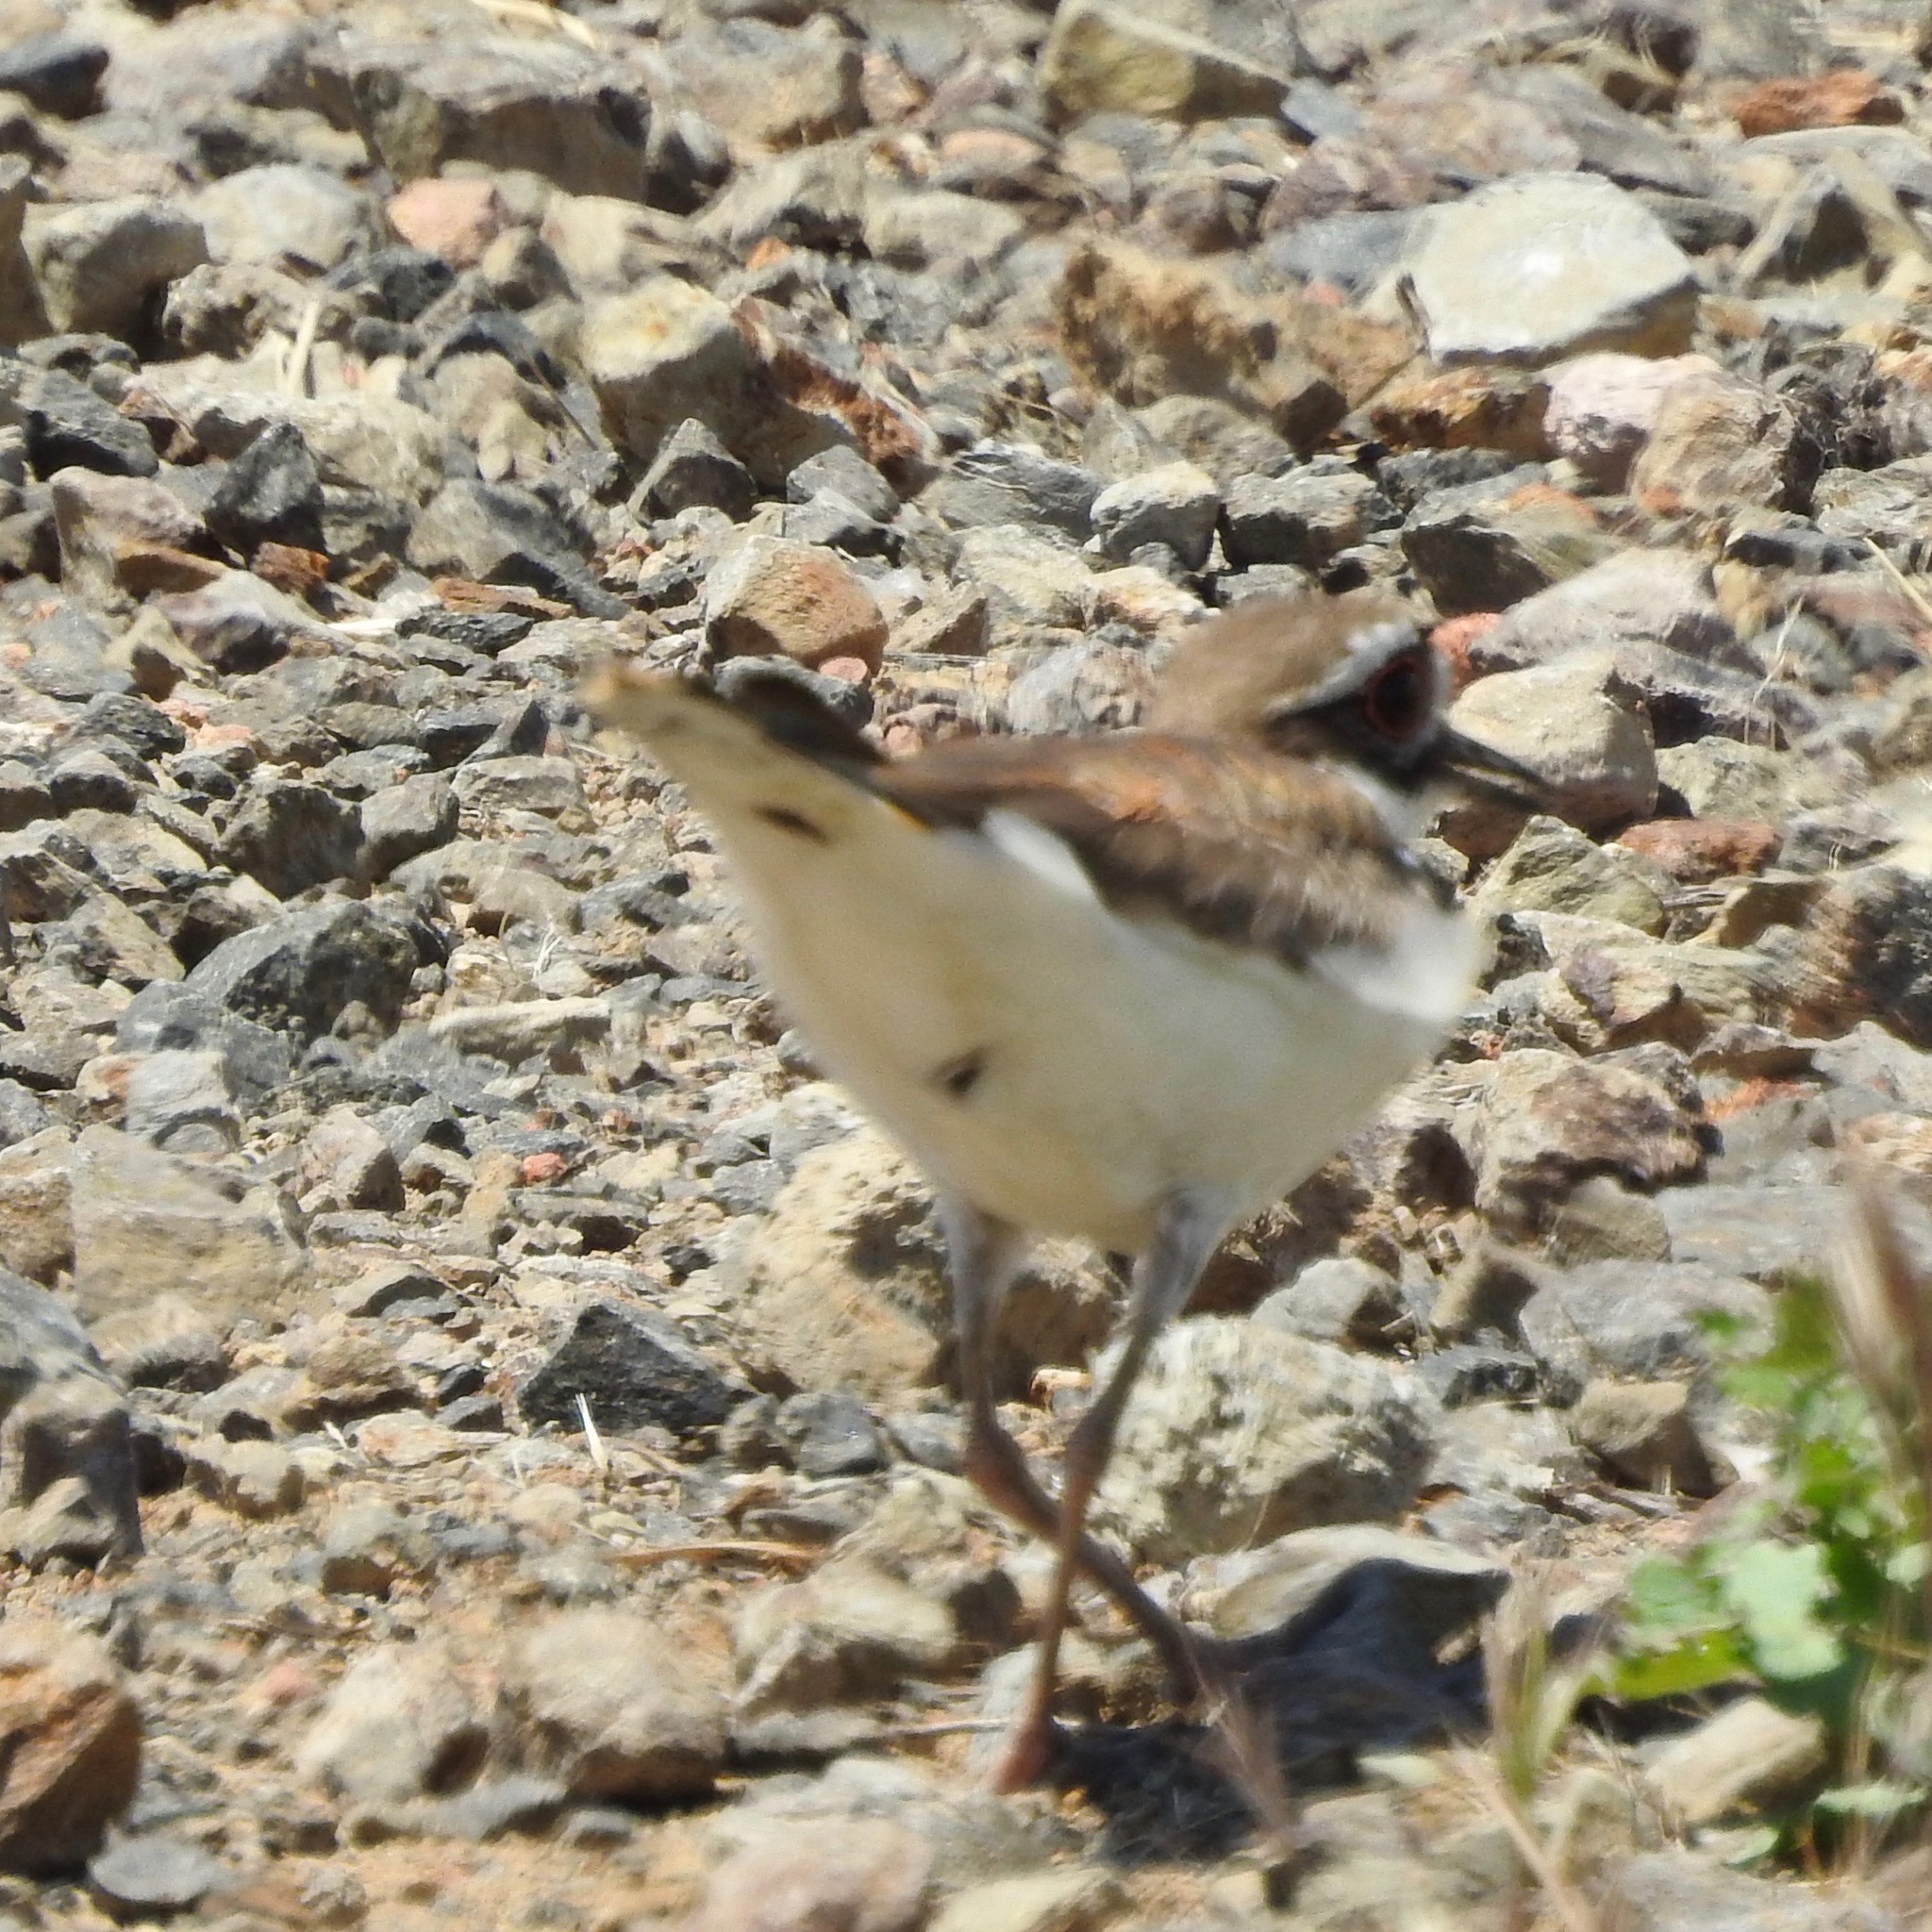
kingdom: Animalia
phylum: Chordata
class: Aves
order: Charadriiformes
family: Charadriidae
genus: Charadrius
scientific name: Charadrius vociferus
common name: Killdeer
